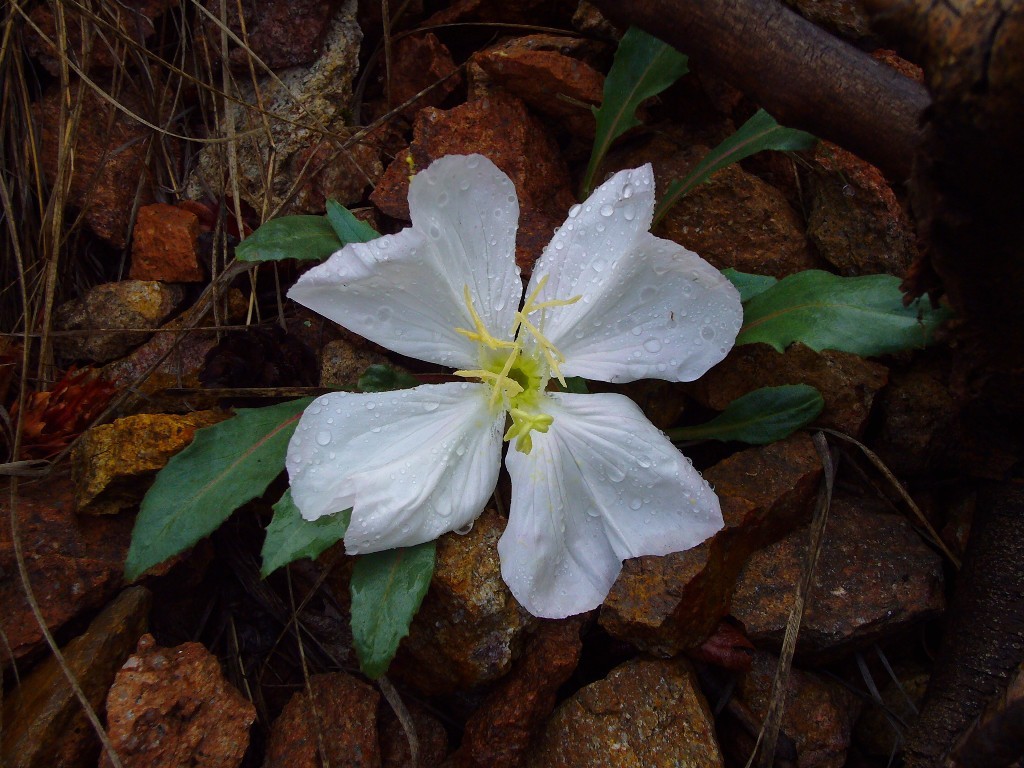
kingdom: Plantae
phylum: Tracheophyta
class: Magnoliopsida
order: Myrtales
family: Onagraceae
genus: Oenothera
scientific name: Oenothera cespitosa
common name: Tufted evening-primrose
